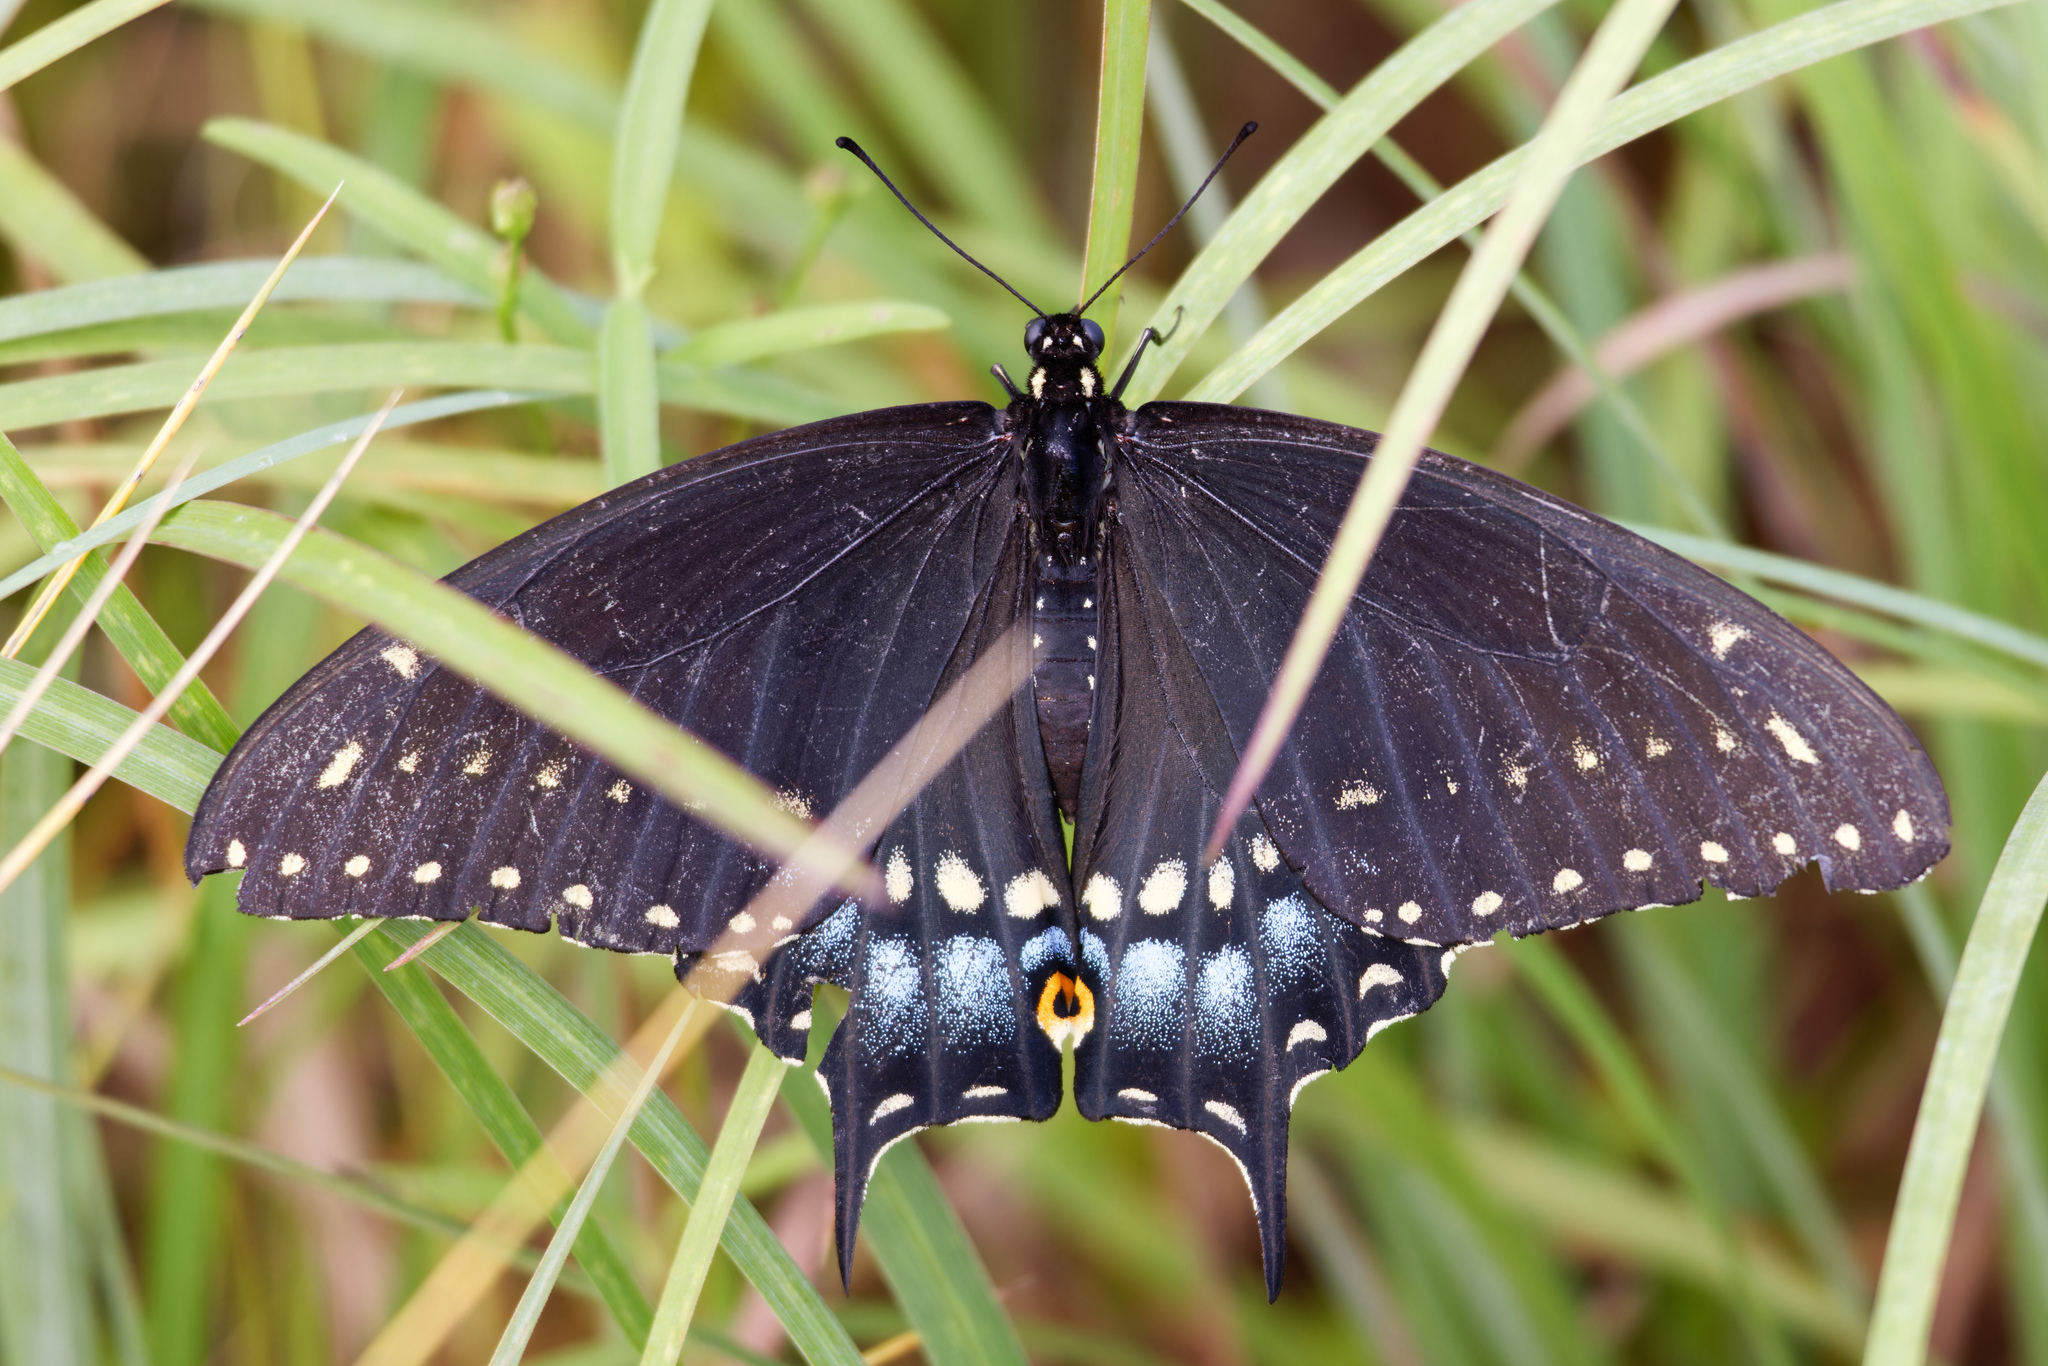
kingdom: Animalia
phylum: Arthropoda
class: Insecta
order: Lepidoptera
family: Papilionidae
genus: Papilio
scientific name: Papilio polyxenes
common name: Black swallowtail
